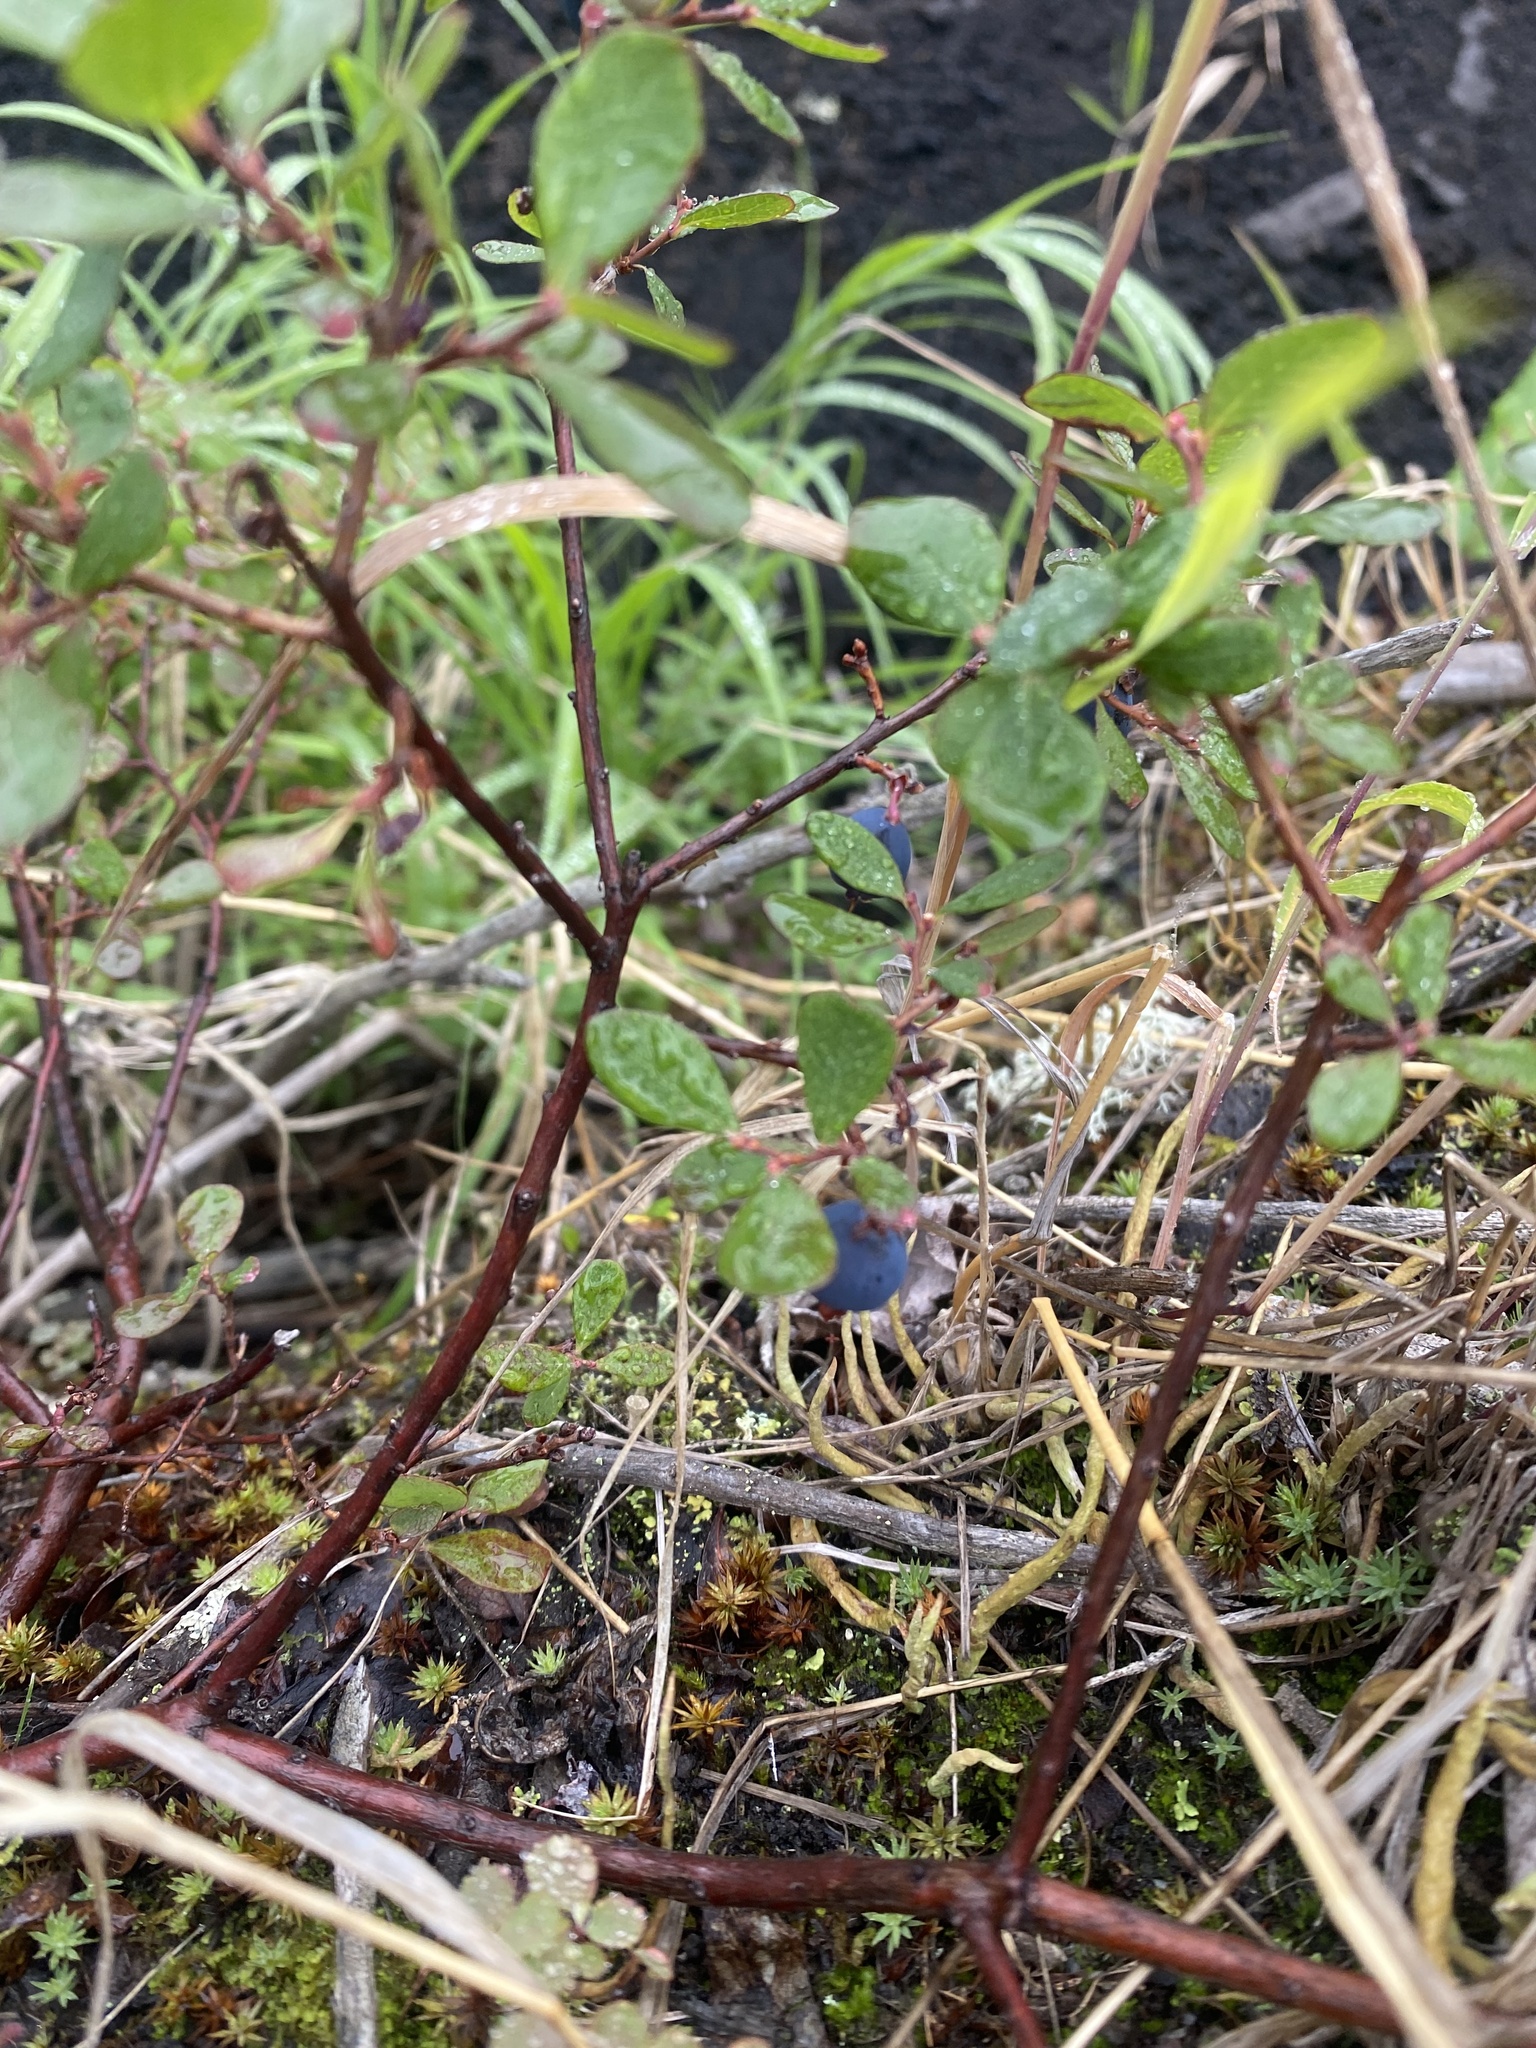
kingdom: Plantae
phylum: Tracheophyta
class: Magnoliopsida
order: Ericales
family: Ericaceae
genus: Vaccinium
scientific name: Vaccinium uliginosum
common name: Bog bilberry
